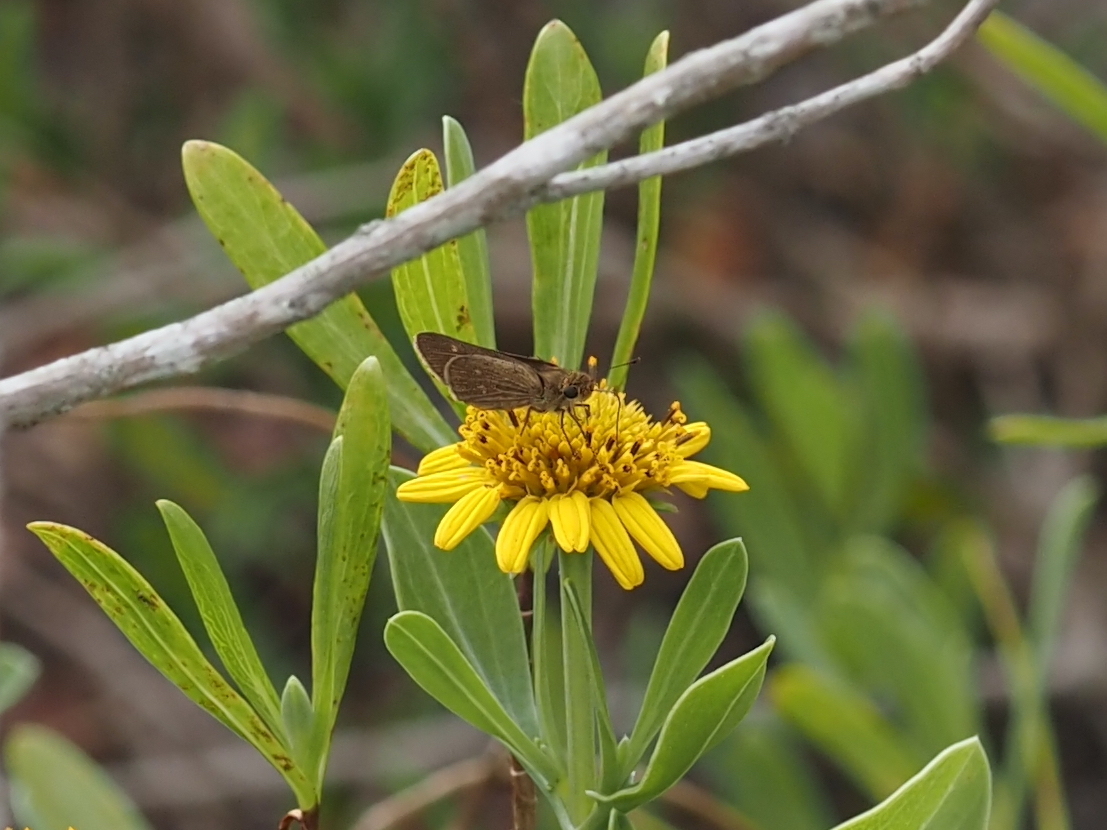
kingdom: Animalia
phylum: Arthropoda
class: Insecta
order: Lepidoptera
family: Hesperiidae
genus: Panoquina
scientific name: Panoquina panoquinoides
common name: Beach skipper
